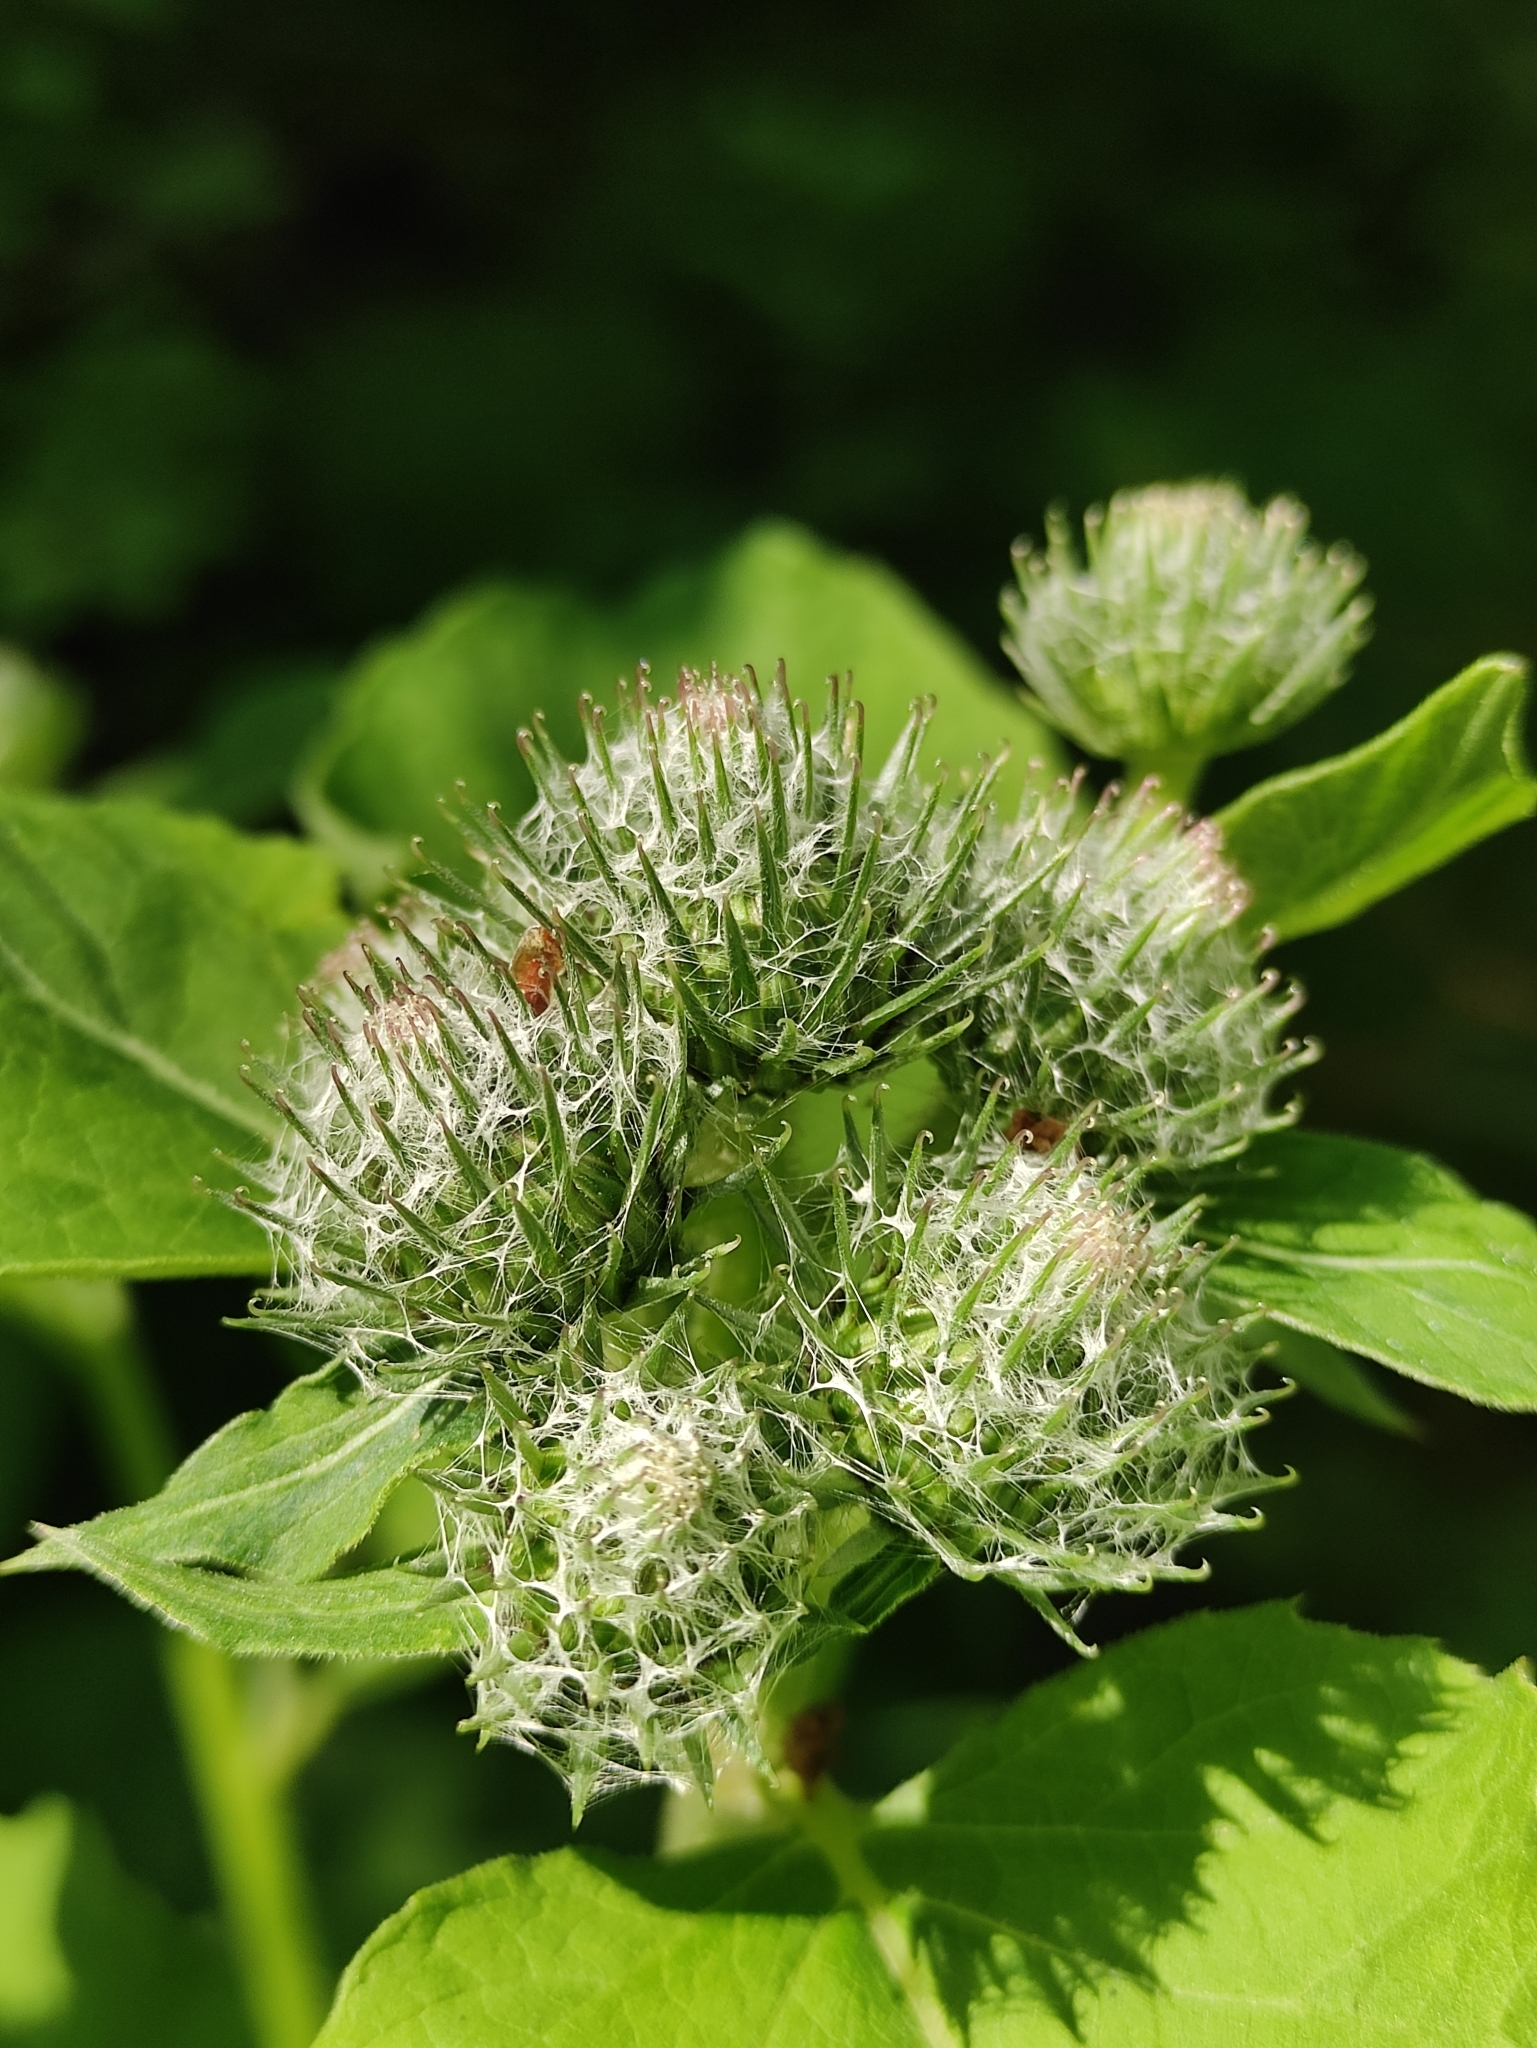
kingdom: Plantae
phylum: Tracheophyta
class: Magnoliopsida
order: Asterales
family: Asteraceae
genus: Arctium
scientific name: Arctium tomentosum
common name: Woolly burdock
